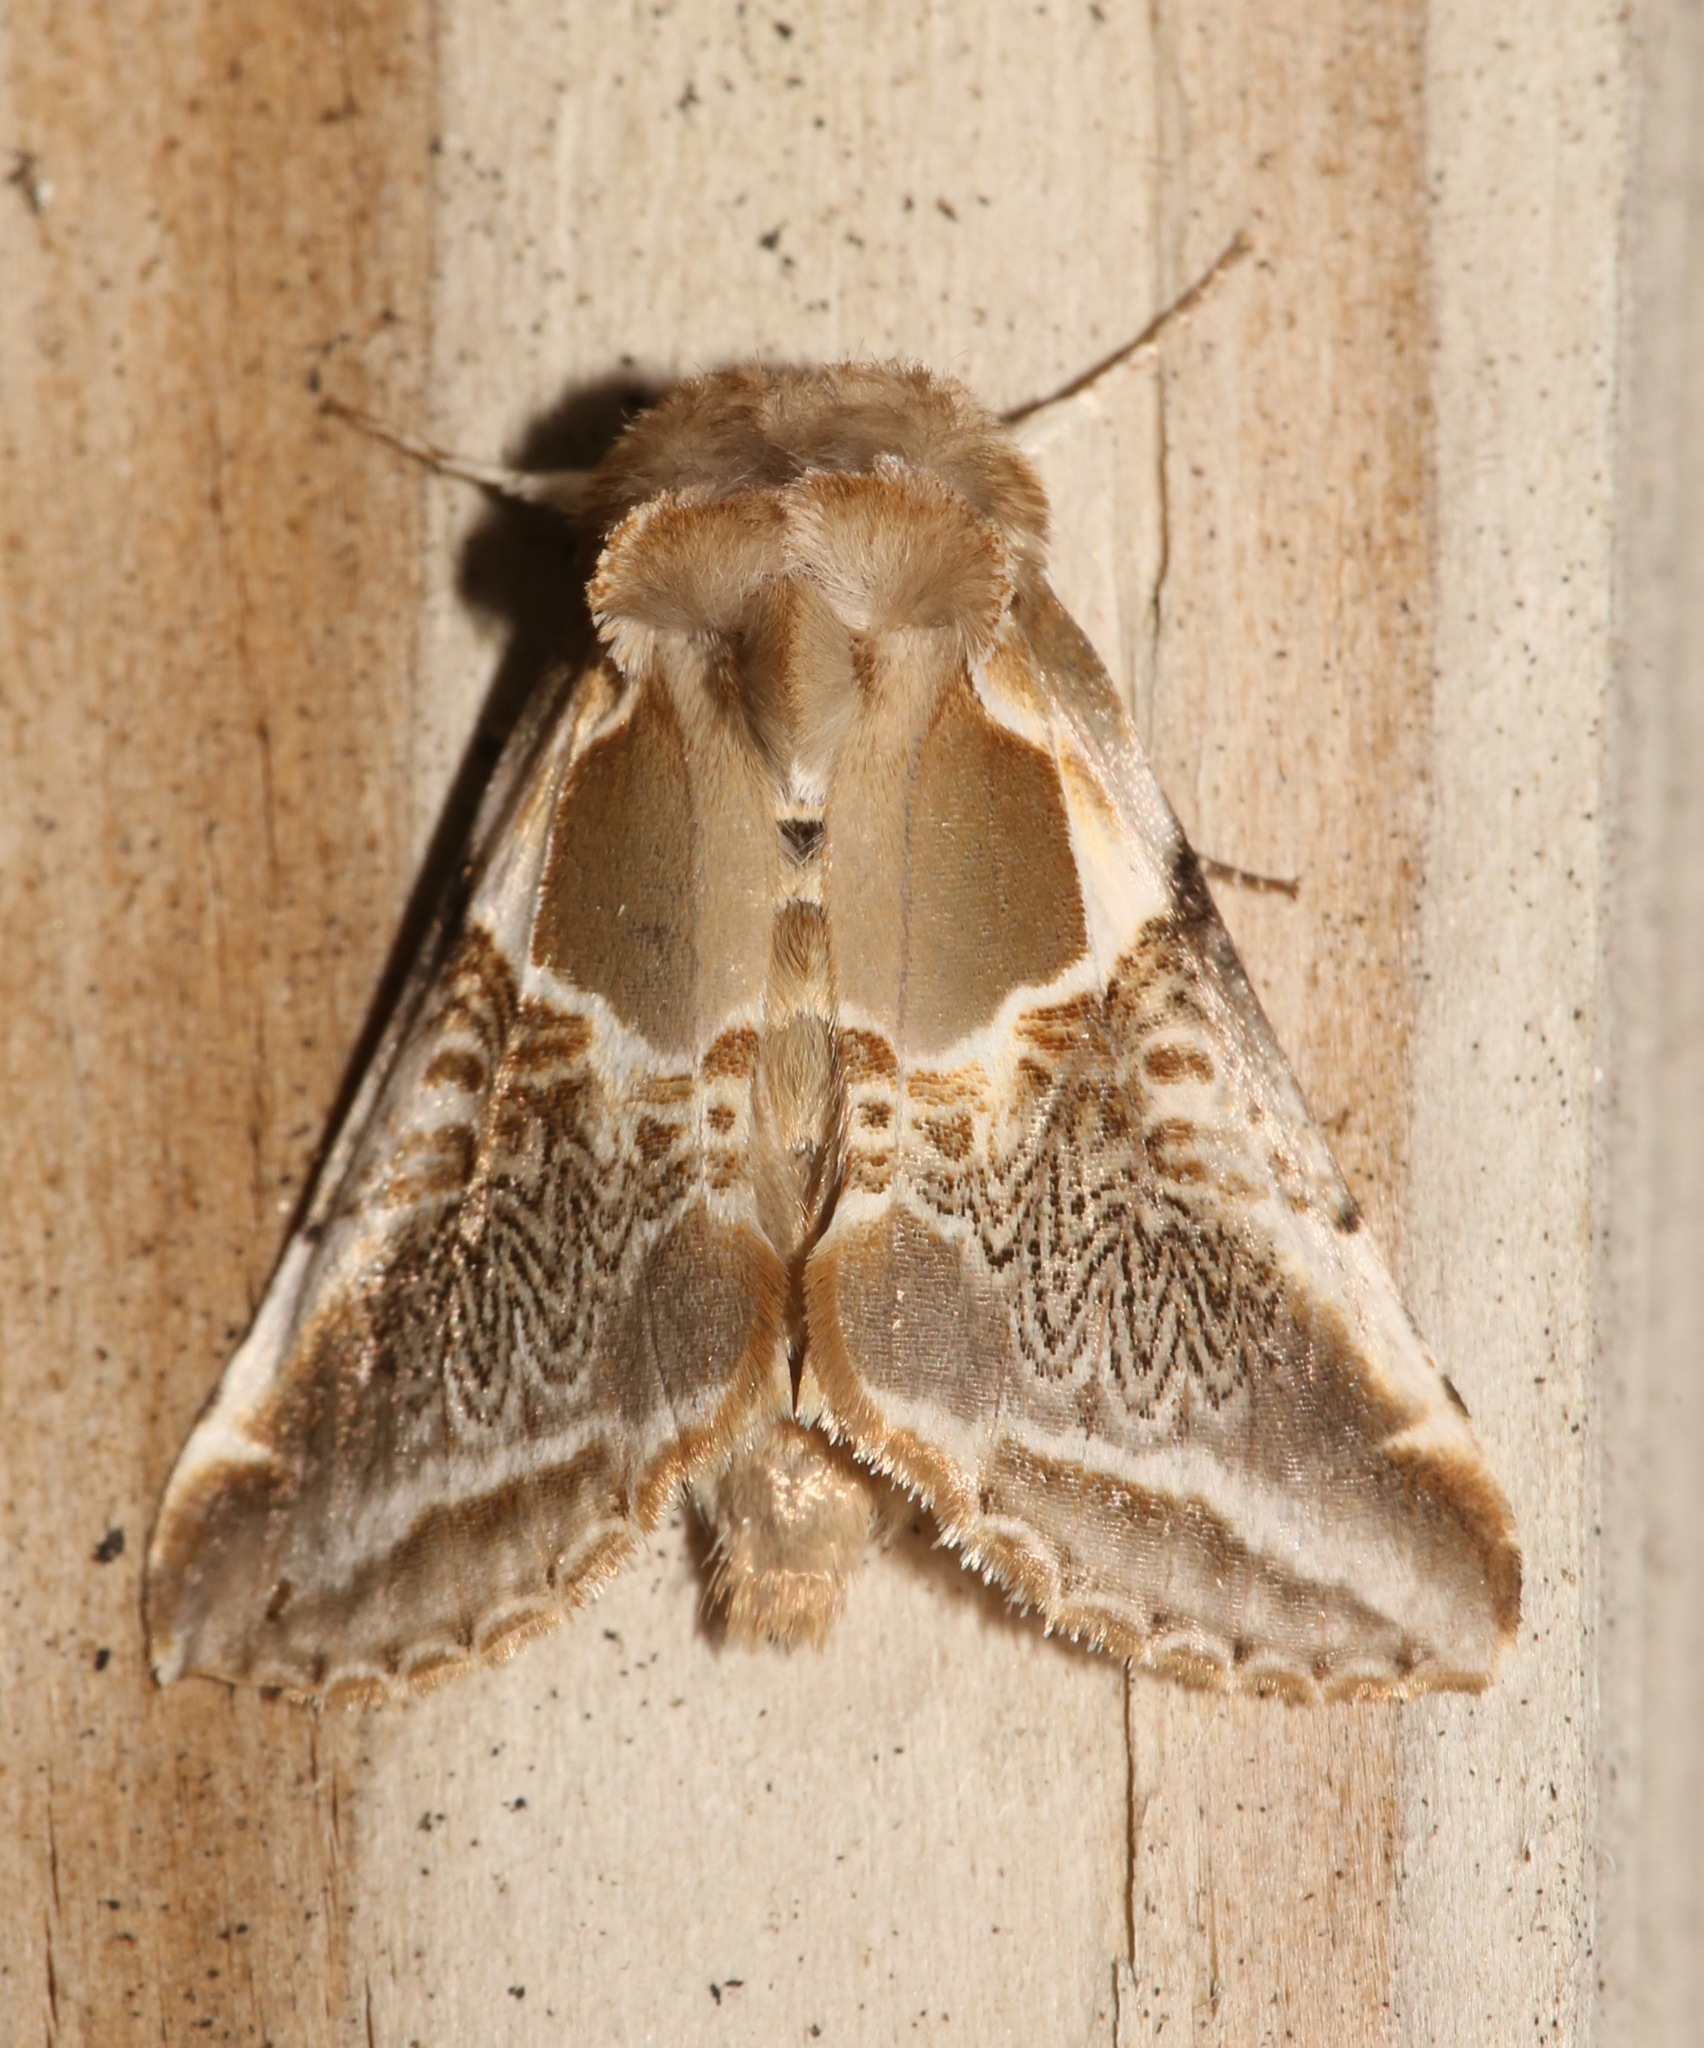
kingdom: Animalia
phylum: Arthropoda
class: Insecta
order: Lepidoptera
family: Drepanidae
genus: Habrosyne
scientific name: Habrosyne scripta
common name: Lettered habrosyne moth
